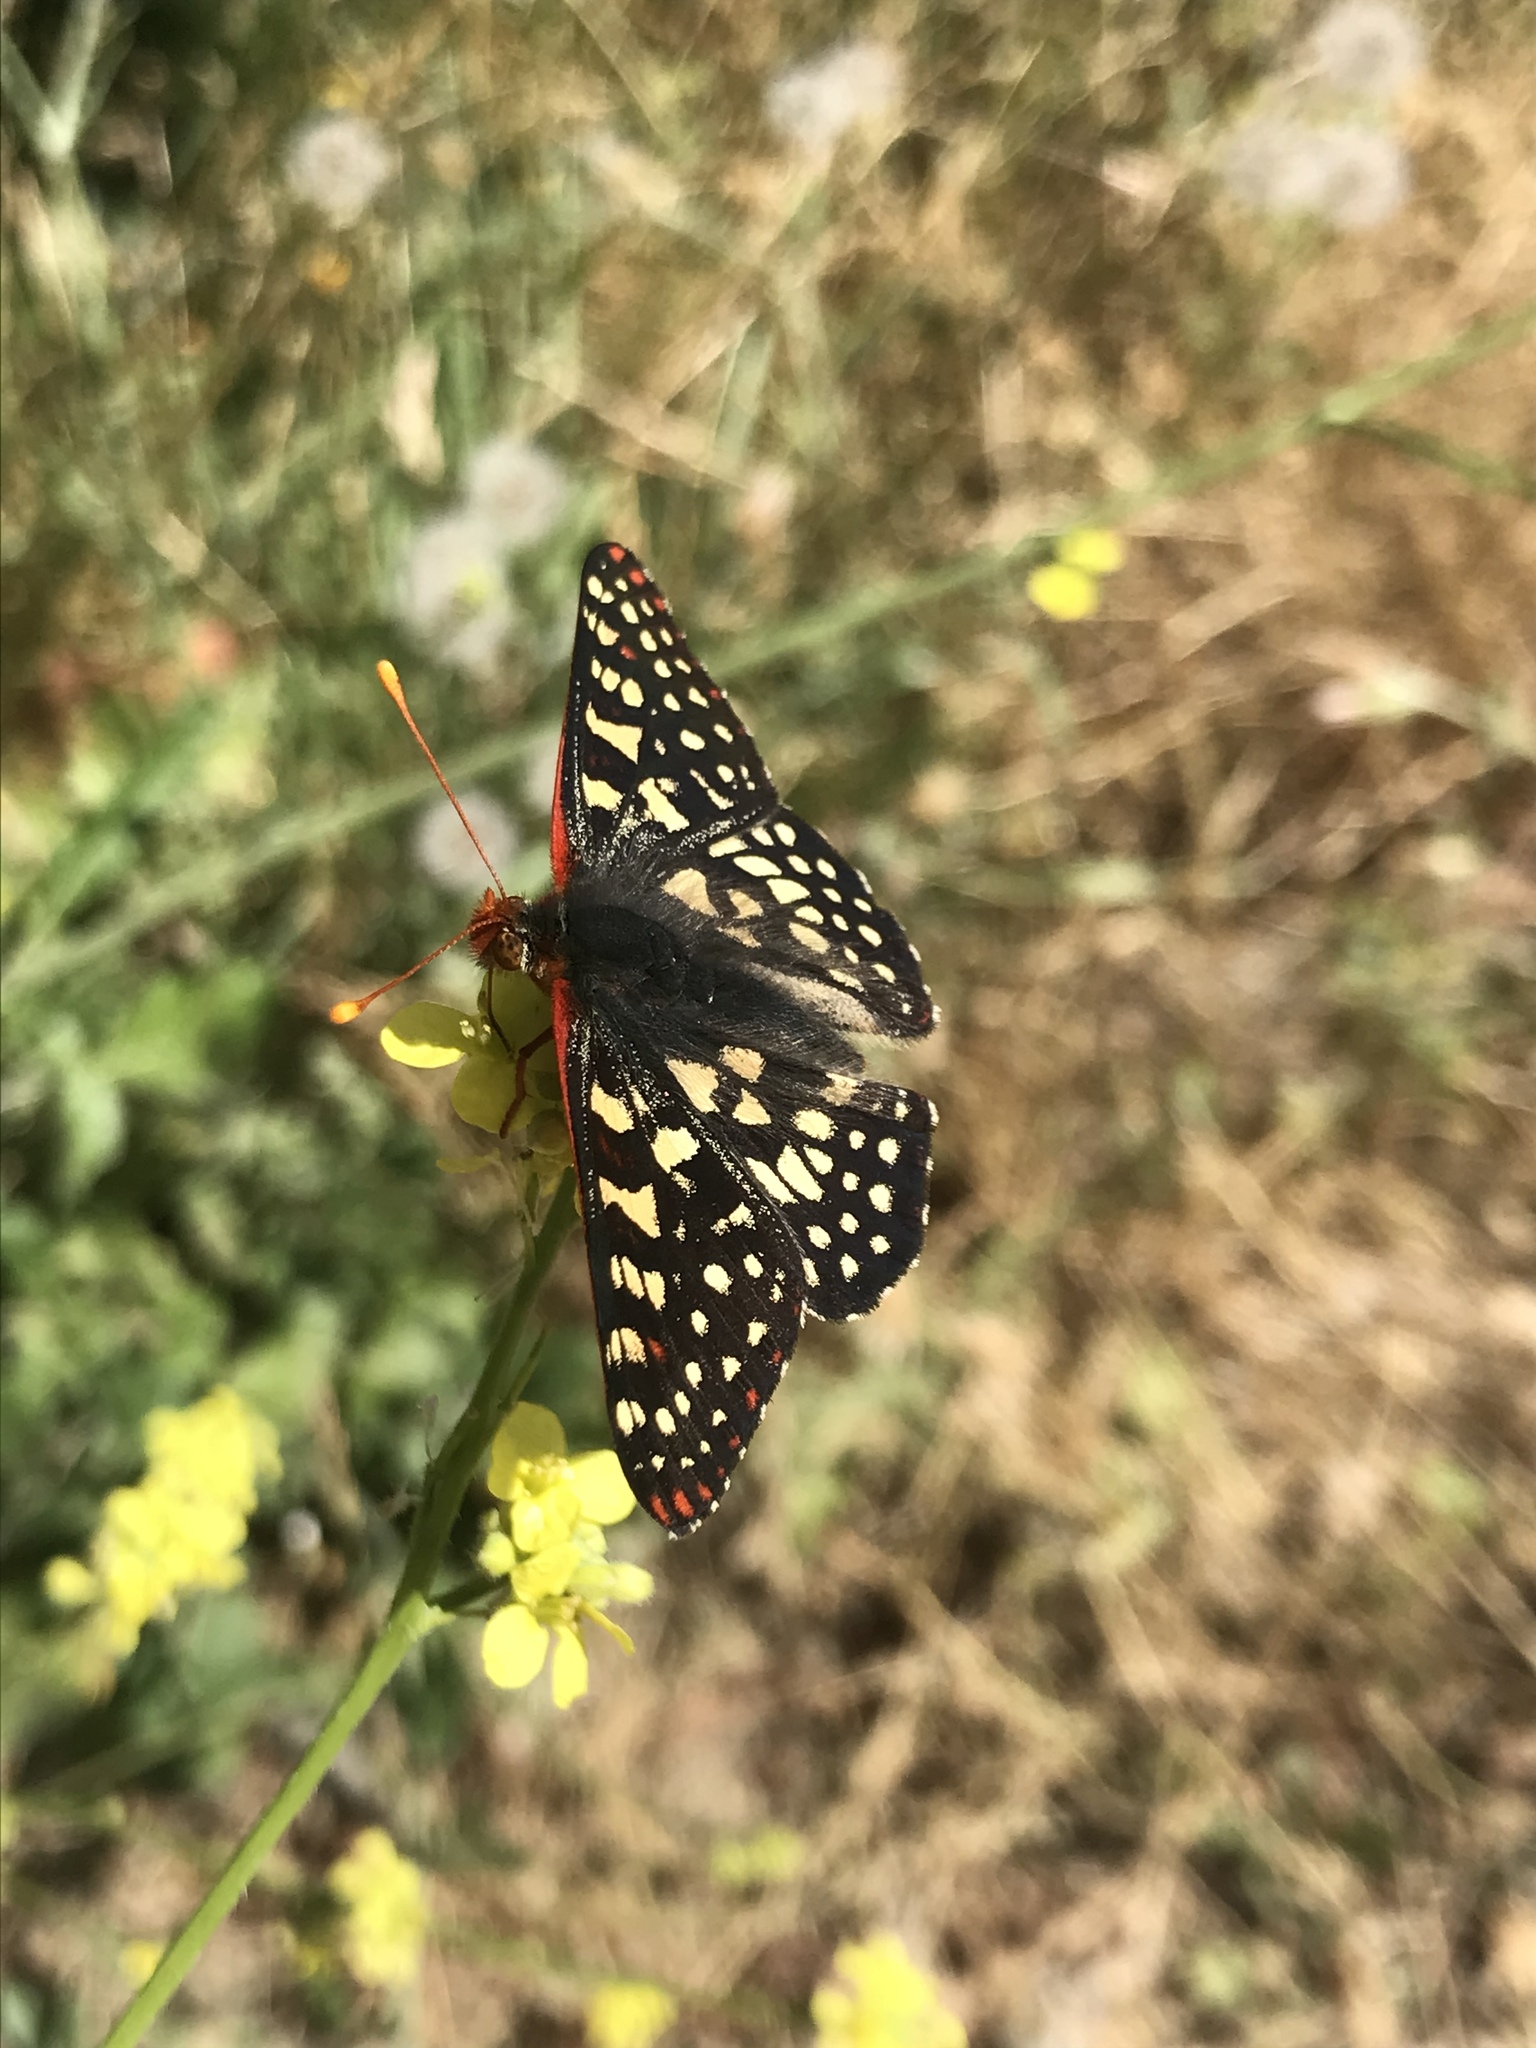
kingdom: Animalia
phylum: Arthropoda
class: Insecta
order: Lepidoptera
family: Nymphalidae
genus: Occidryas
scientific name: Occidryas chalcedona
